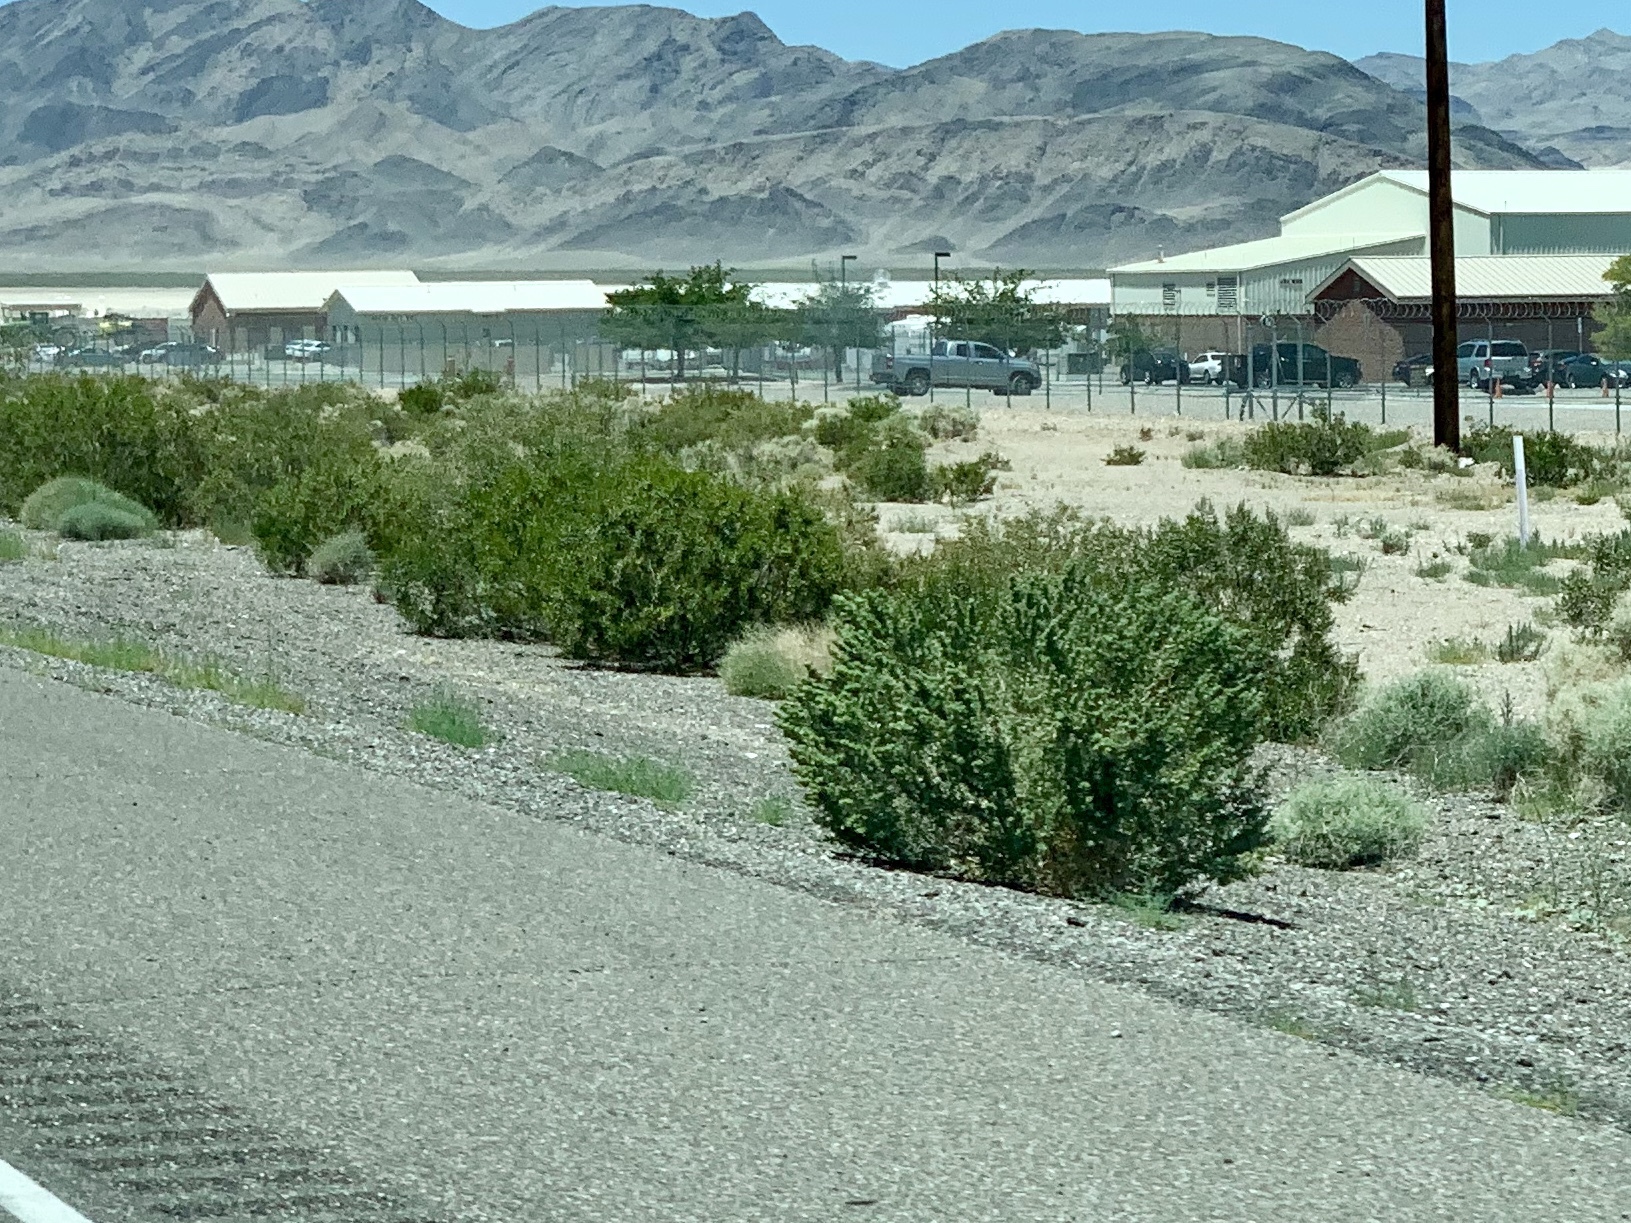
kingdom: Plantae
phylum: Tracheophyta
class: Magnoliopsida
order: Zygophyllales
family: Zygophyllaceae
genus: Larrea
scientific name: Larrea tridentata
